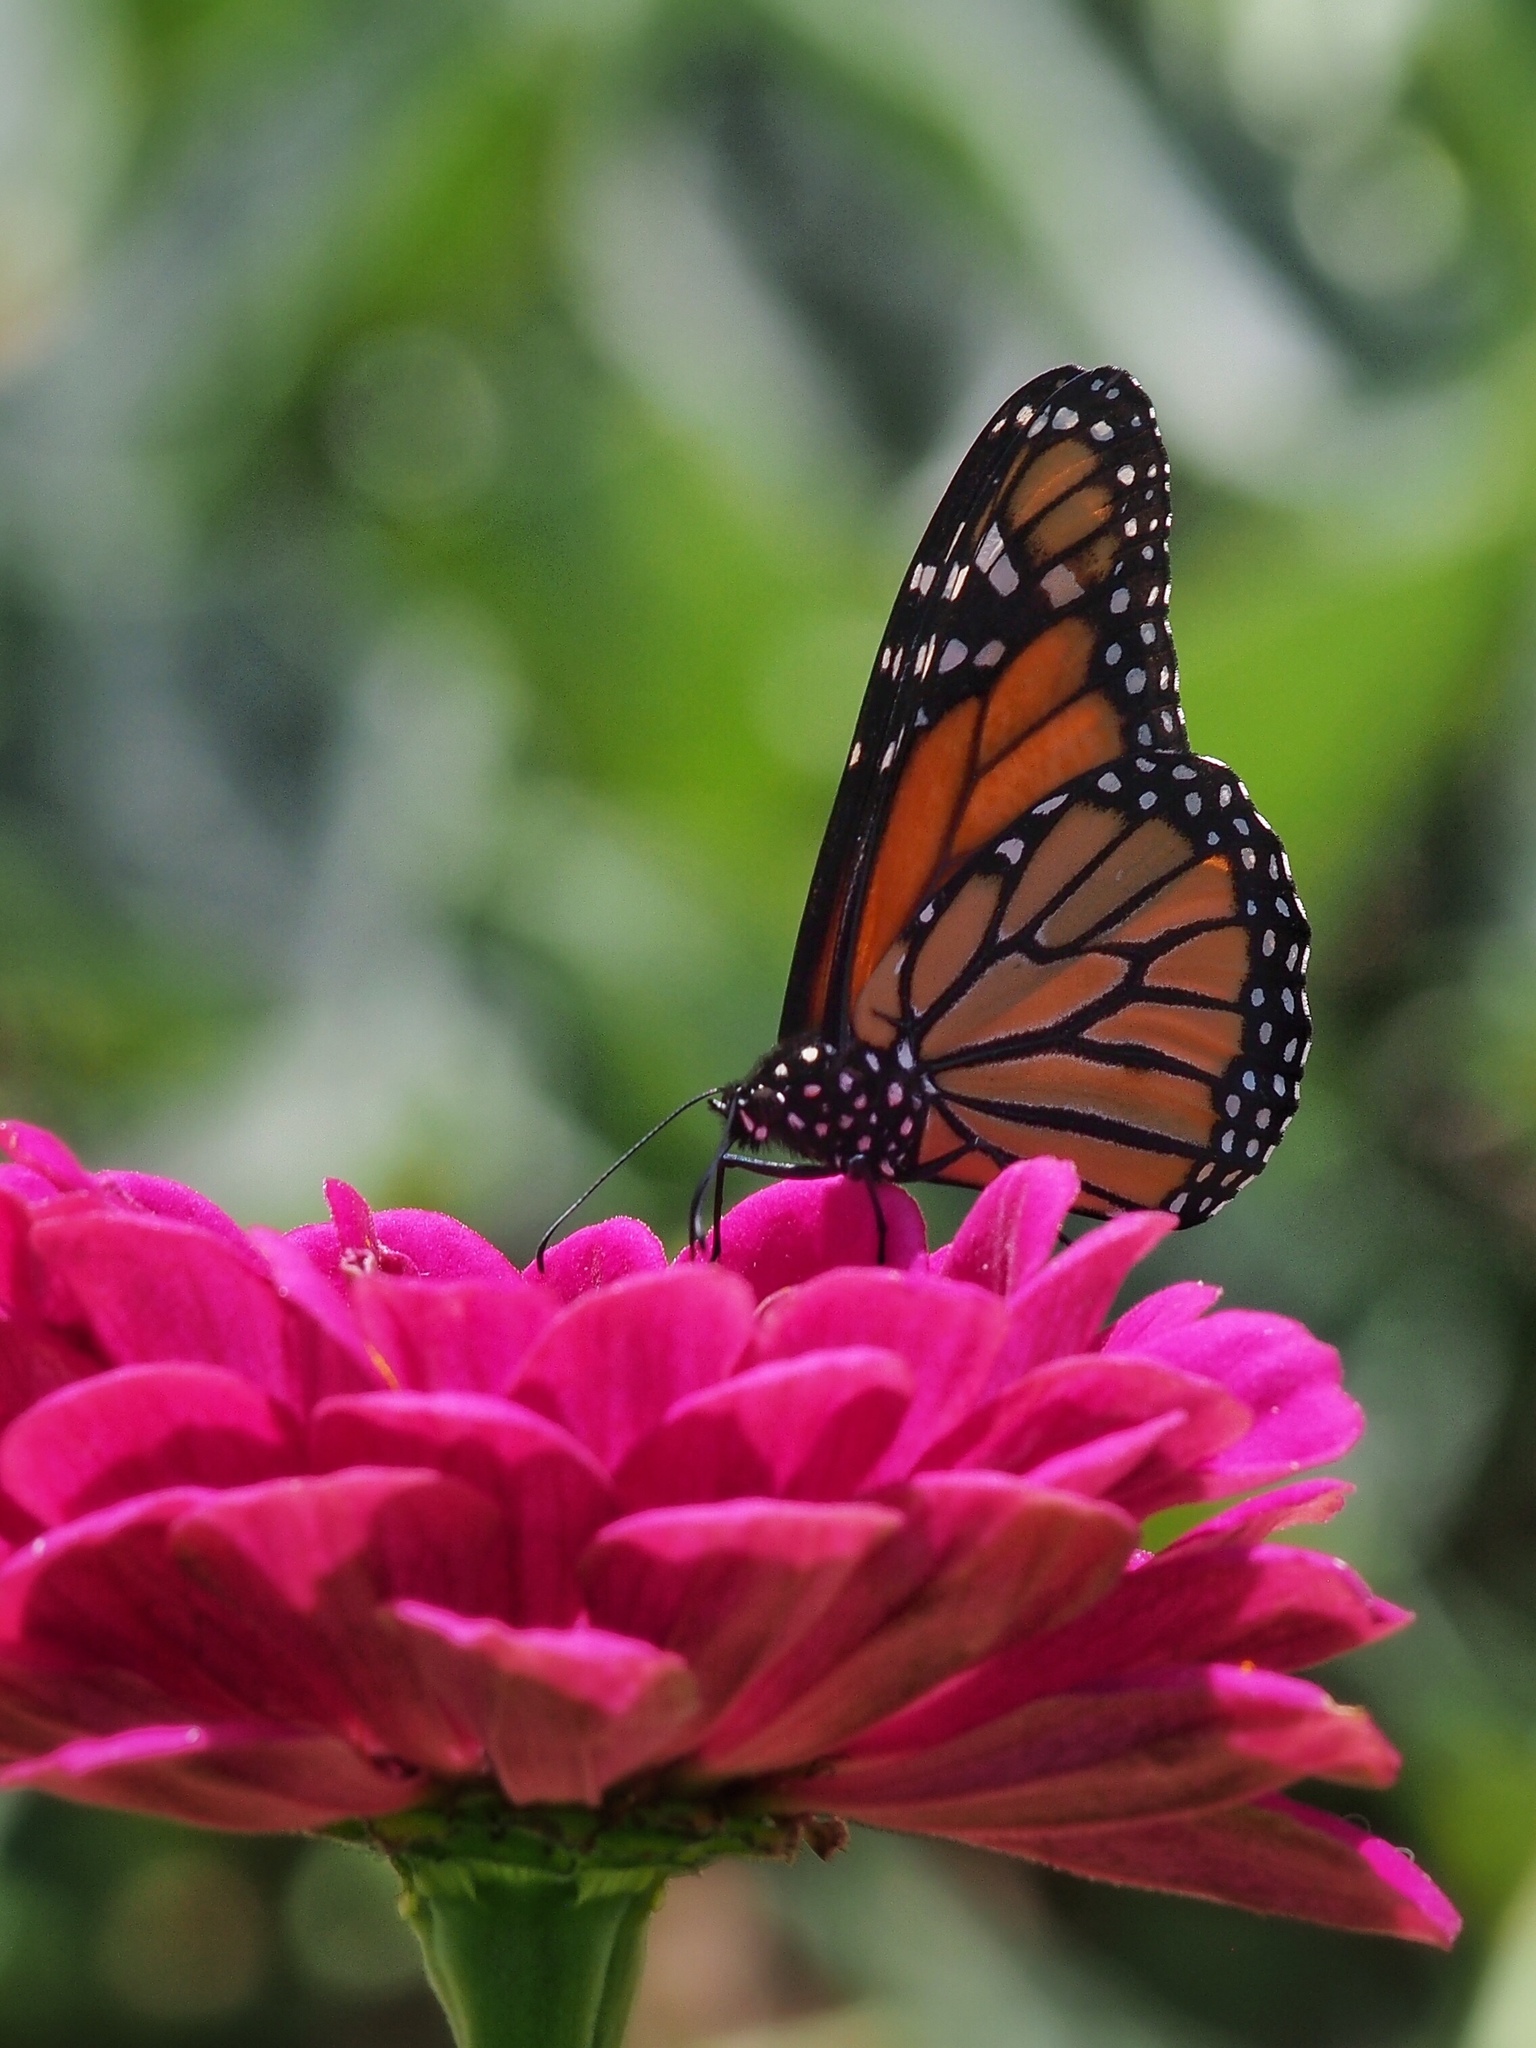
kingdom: Animalia
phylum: Arthropoda
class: Insecta
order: Lepidoptera
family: Nymphalidae
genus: Danaus
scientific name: Danaus plexippus
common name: Monarch
